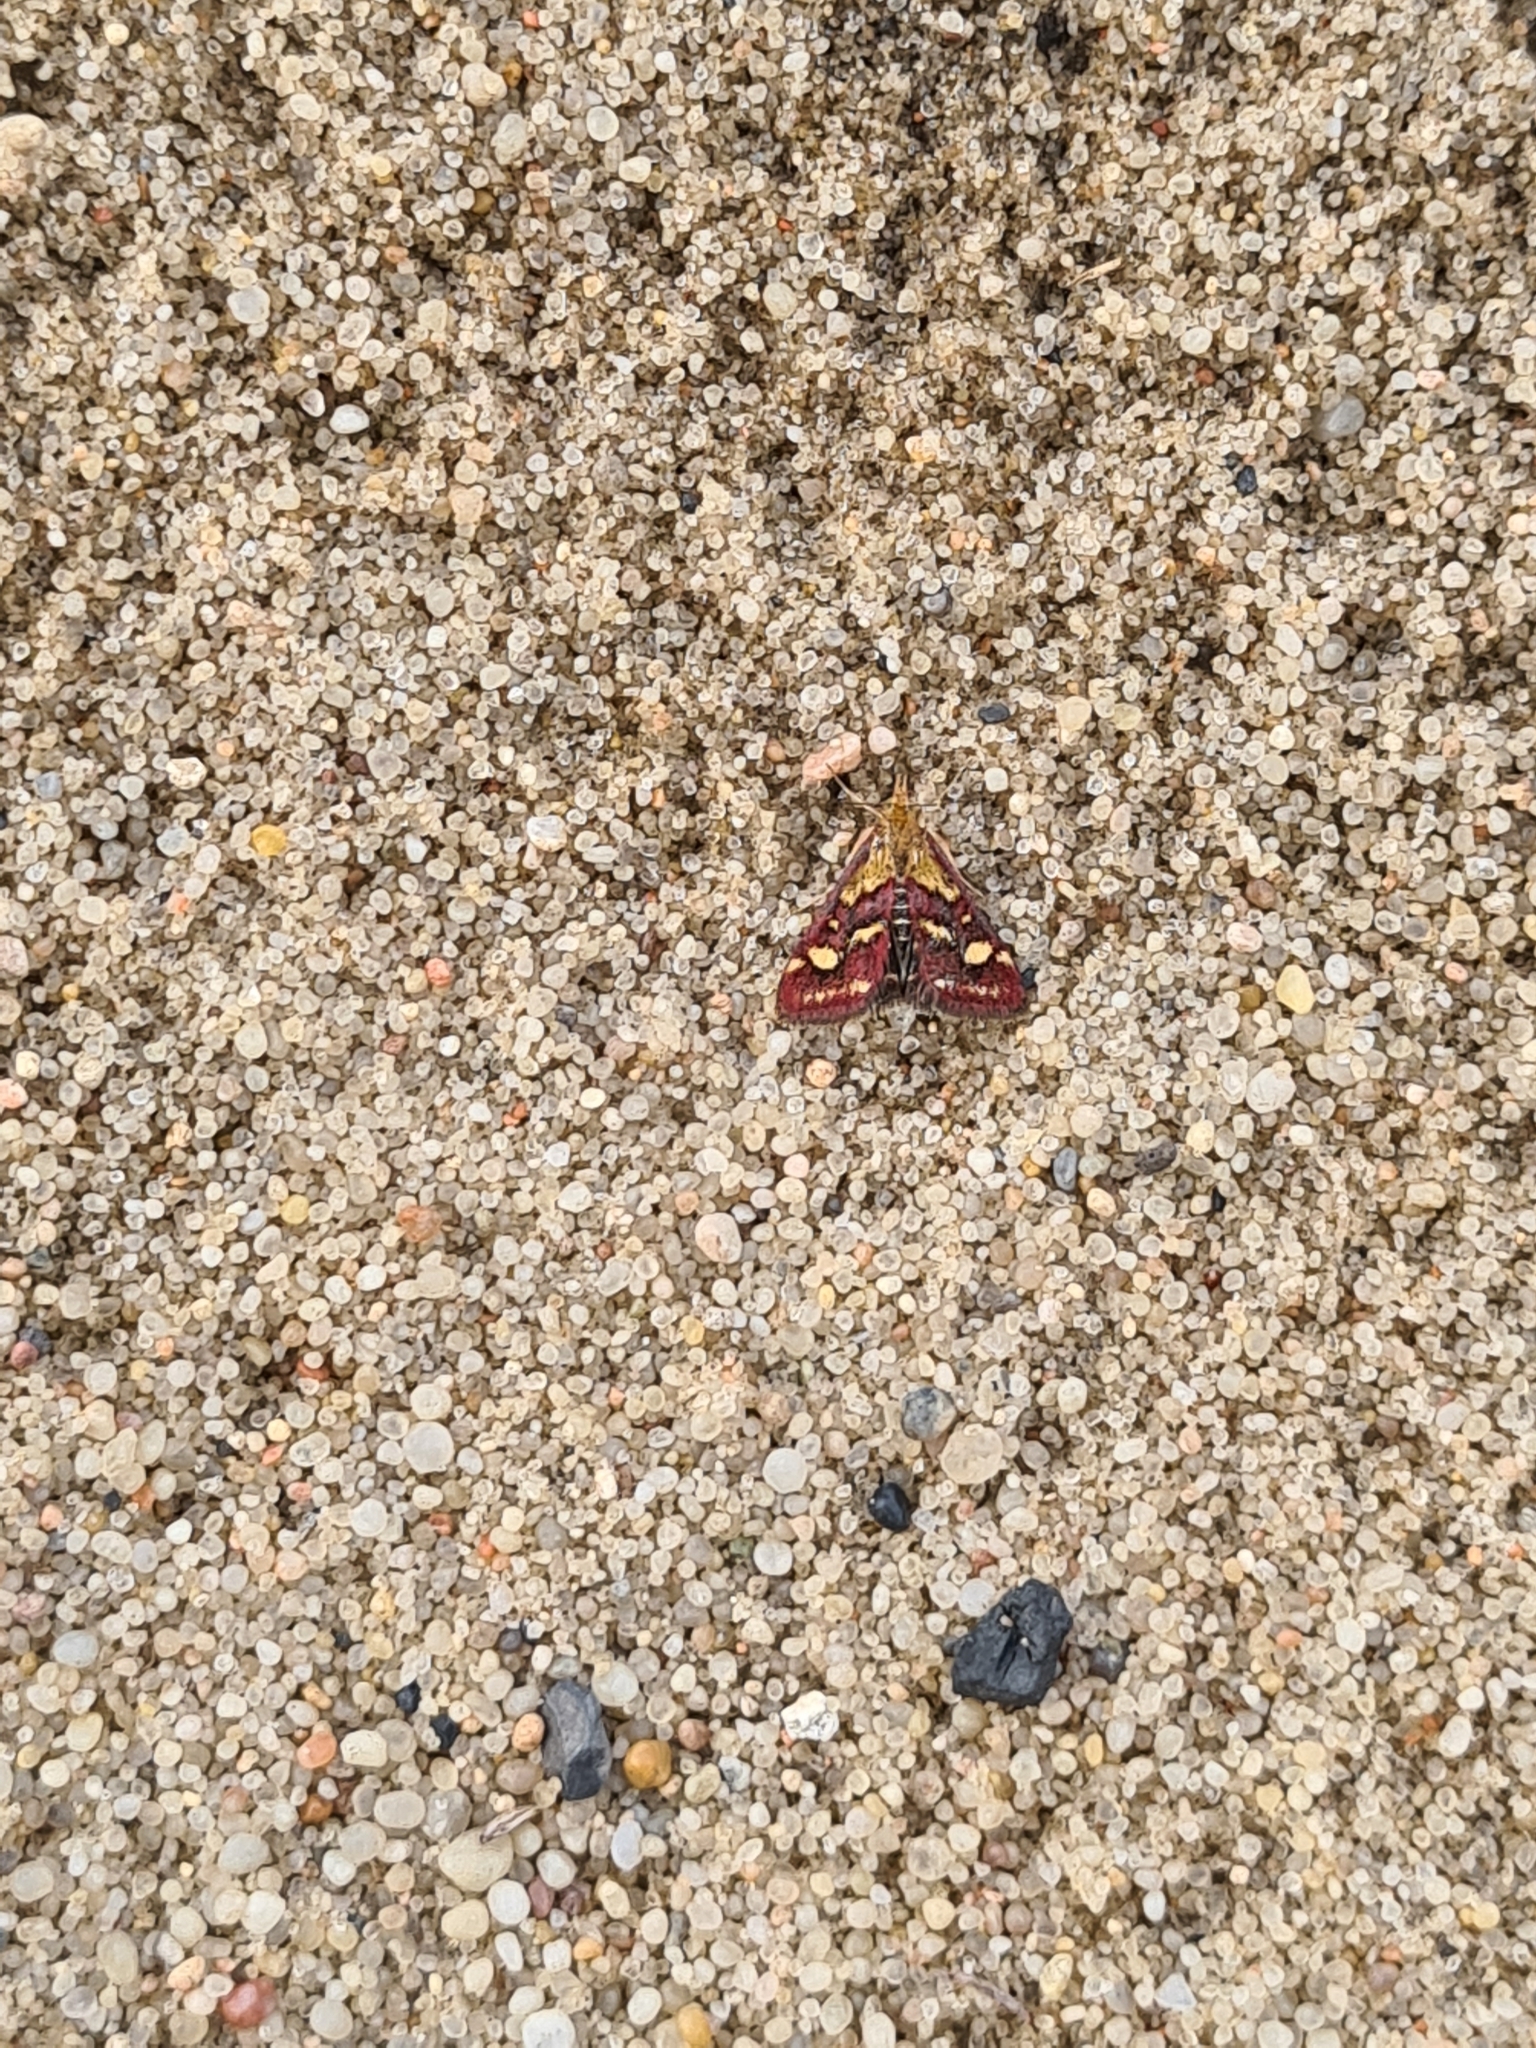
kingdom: Animalia
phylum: Arthropoda
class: Insecta
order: Lepidoptera
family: Crambidae
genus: Pyrausta
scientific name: Pyrausta ostrinalis
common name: Scarce purple & gold
